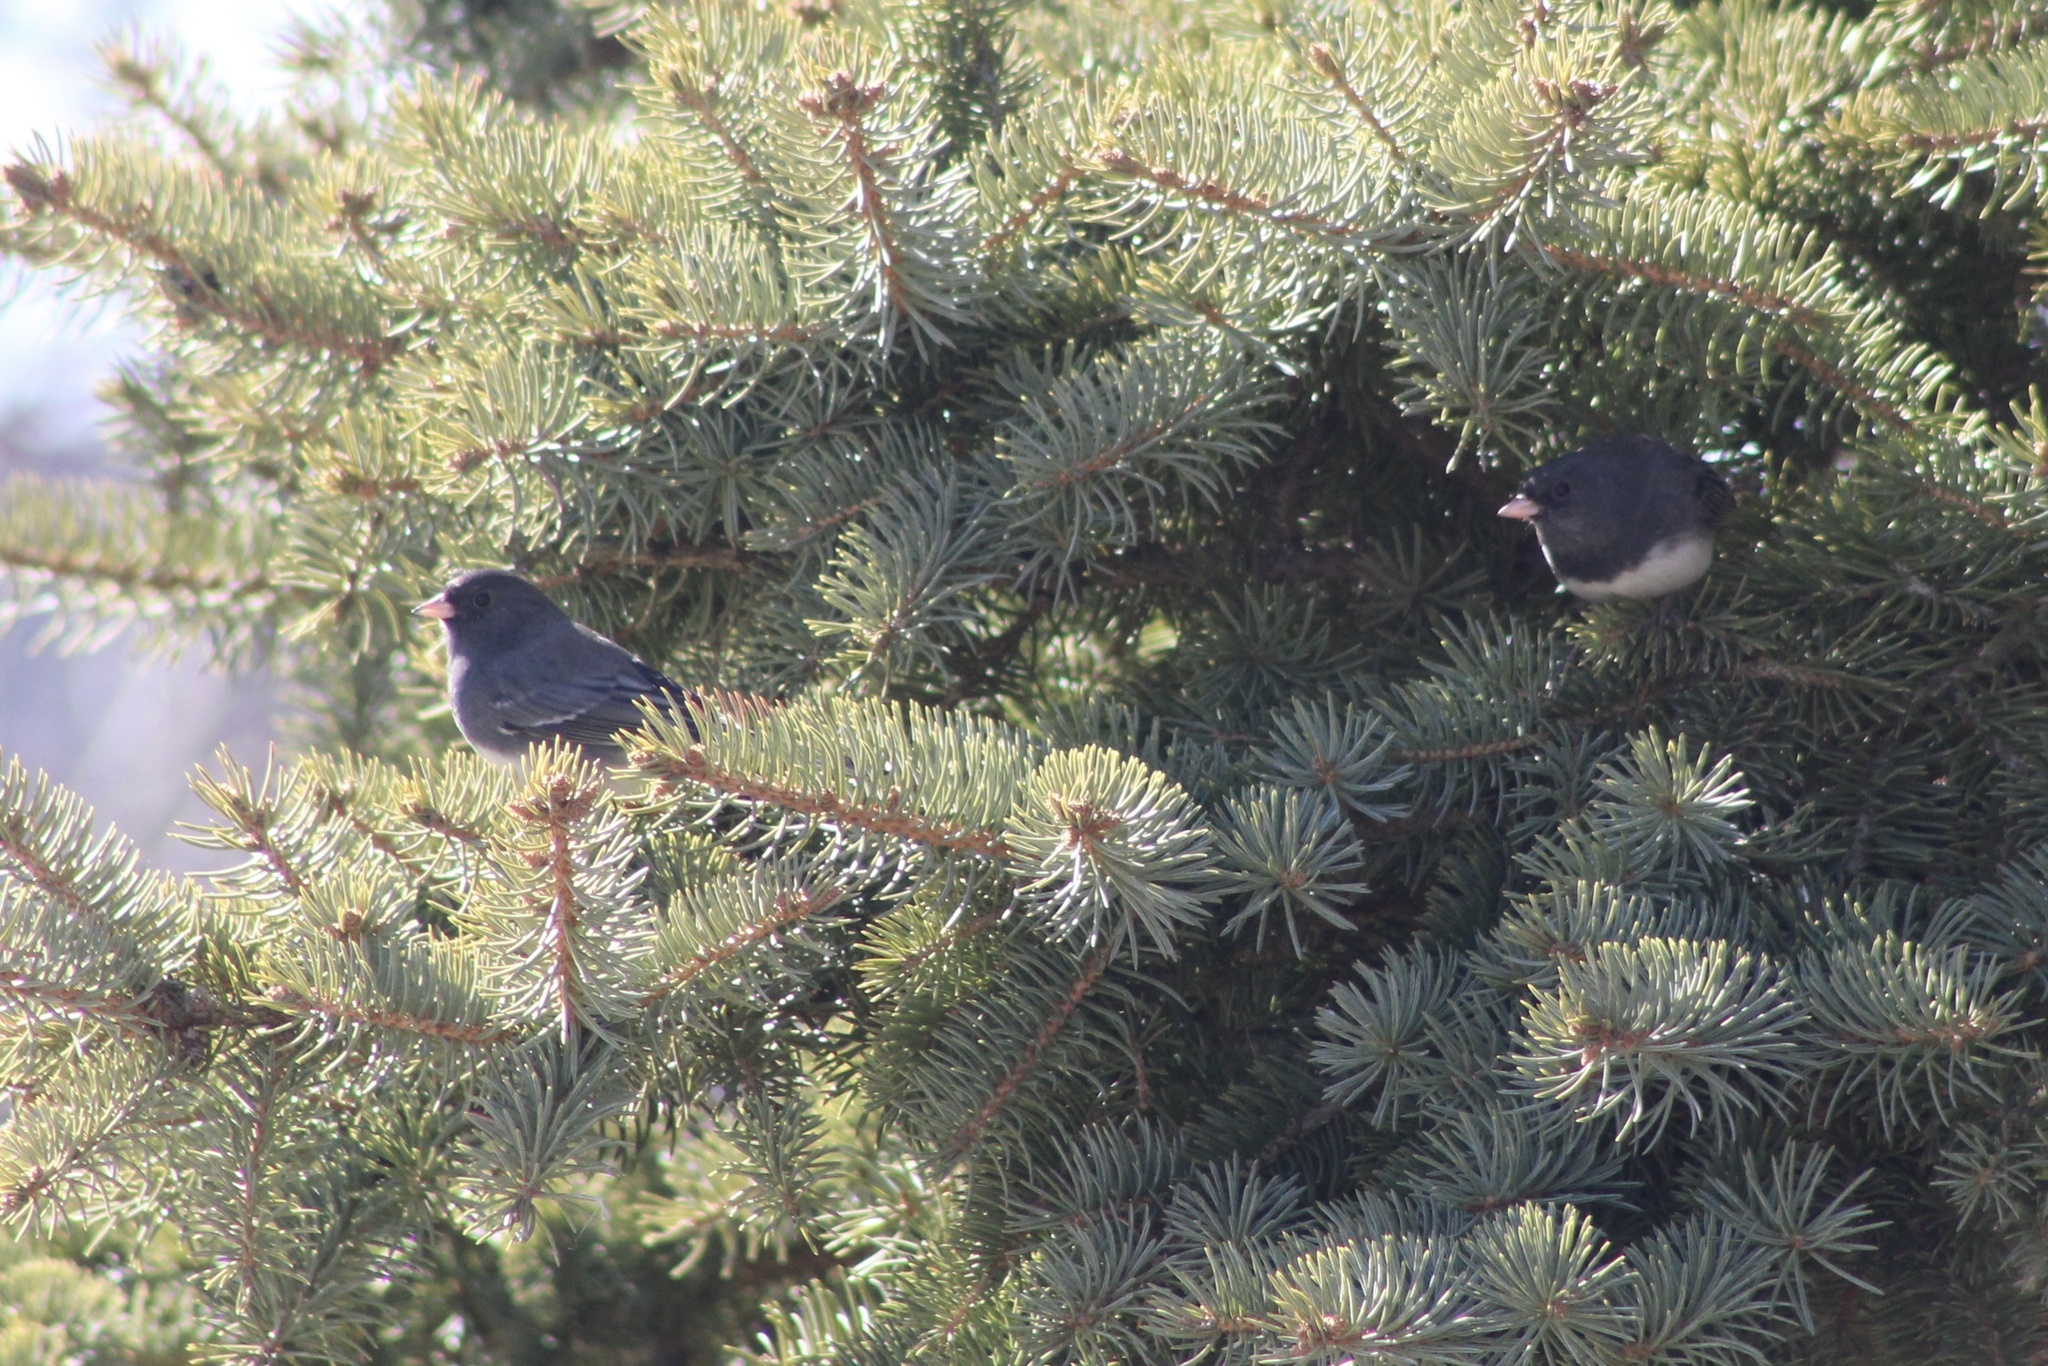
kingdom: Animalia
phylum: Chordata
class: Aves
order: Passeriformes
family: Passerellidae
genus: Junco
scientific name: Junco hyemalis
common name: Dark-eyed junco
